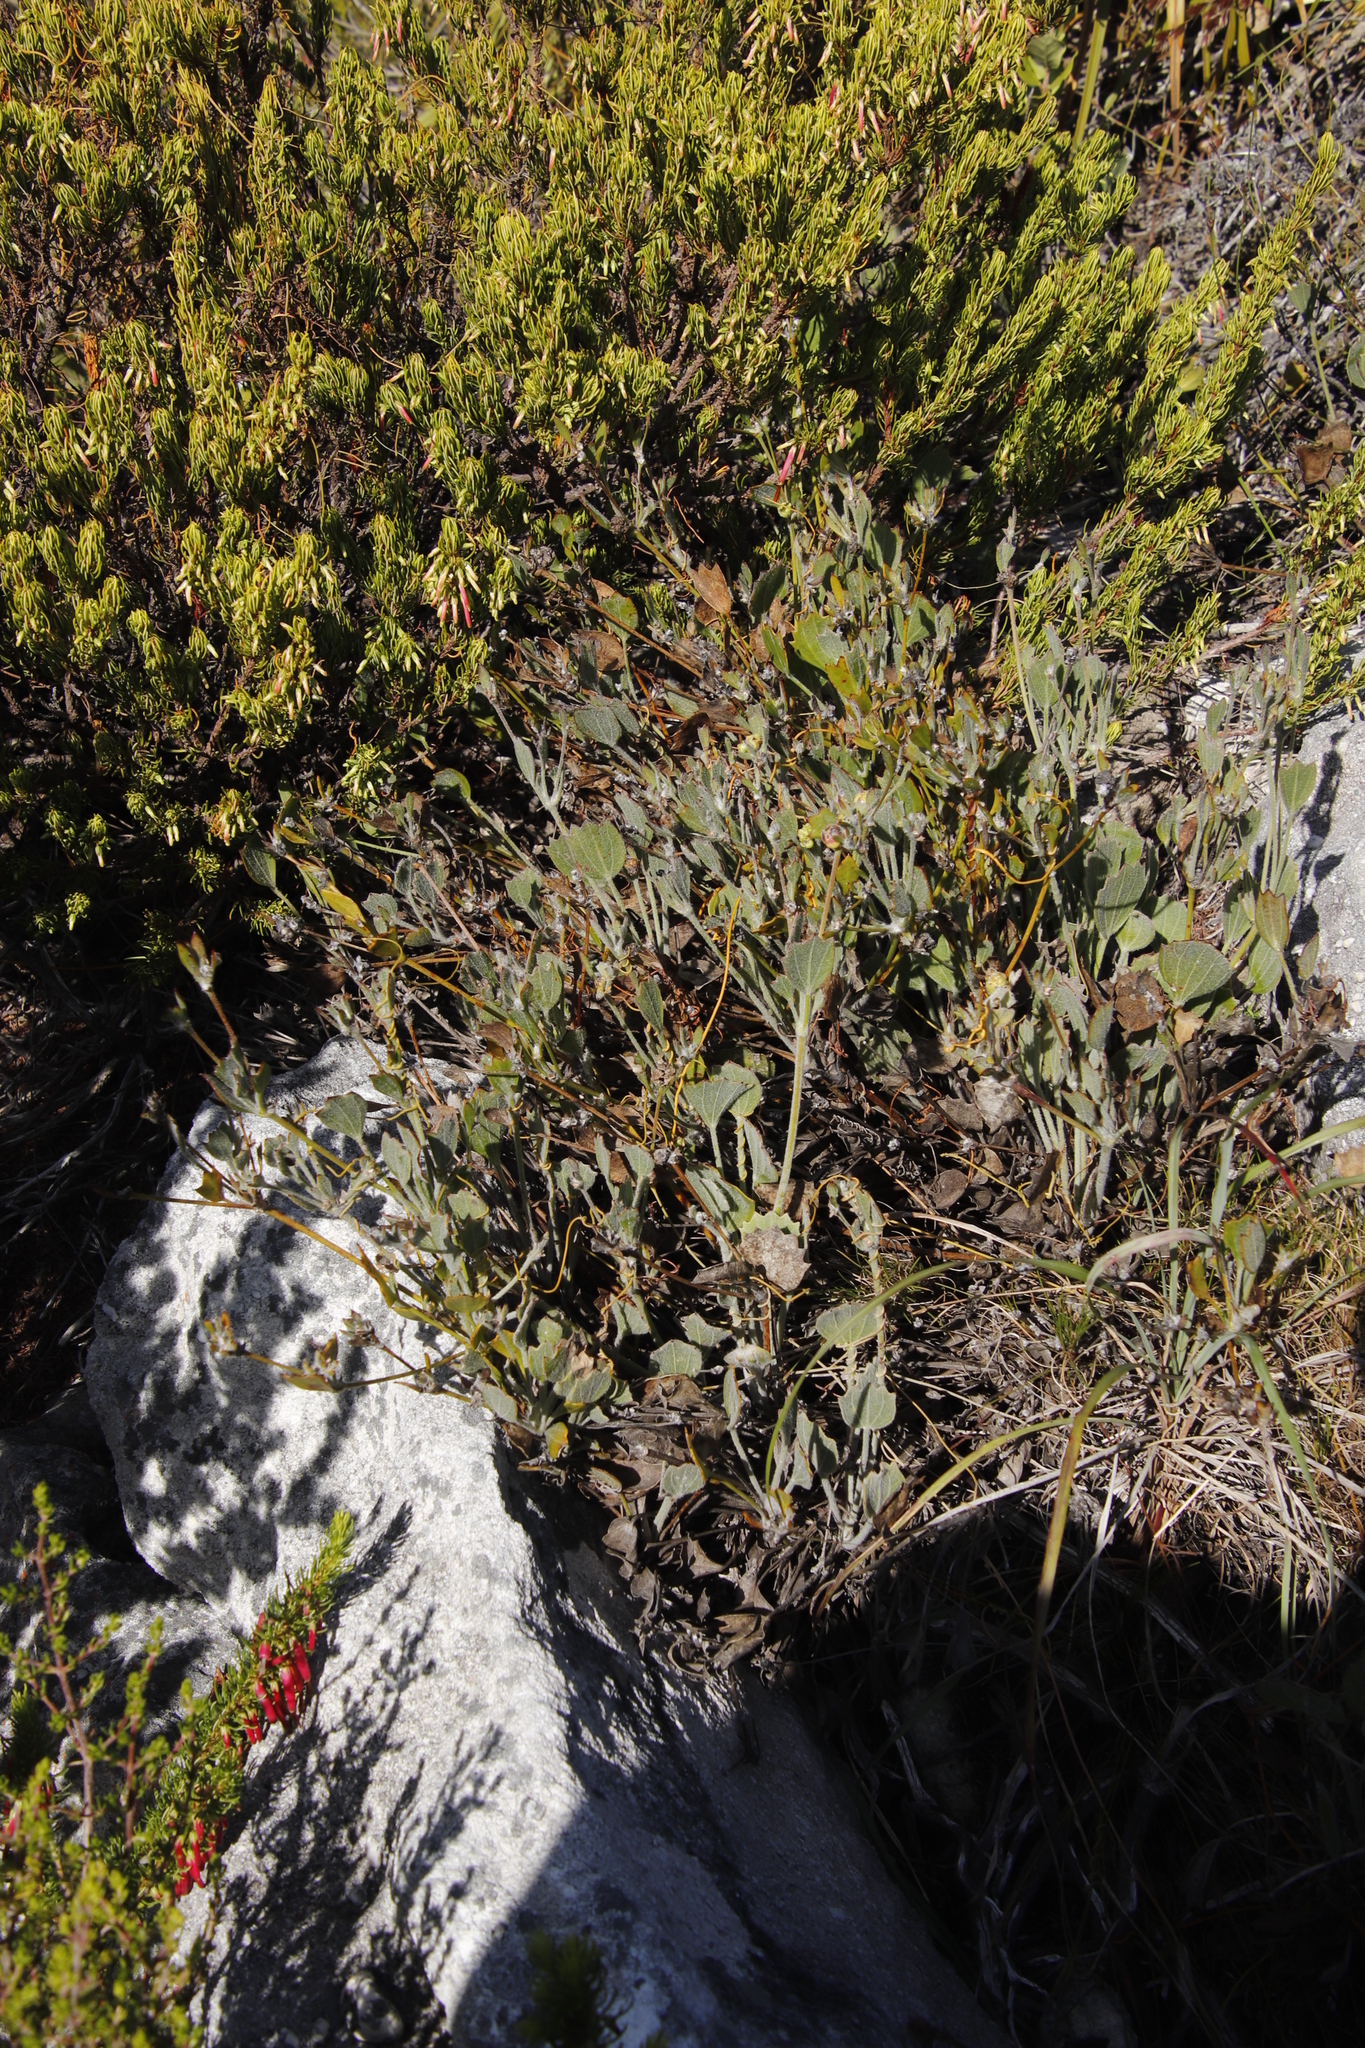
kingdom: Plantae
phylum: Tracheophyta
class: Magnoliopsida
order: Apiales
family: Apiaceae
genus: Centella
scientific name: Centella difformis
